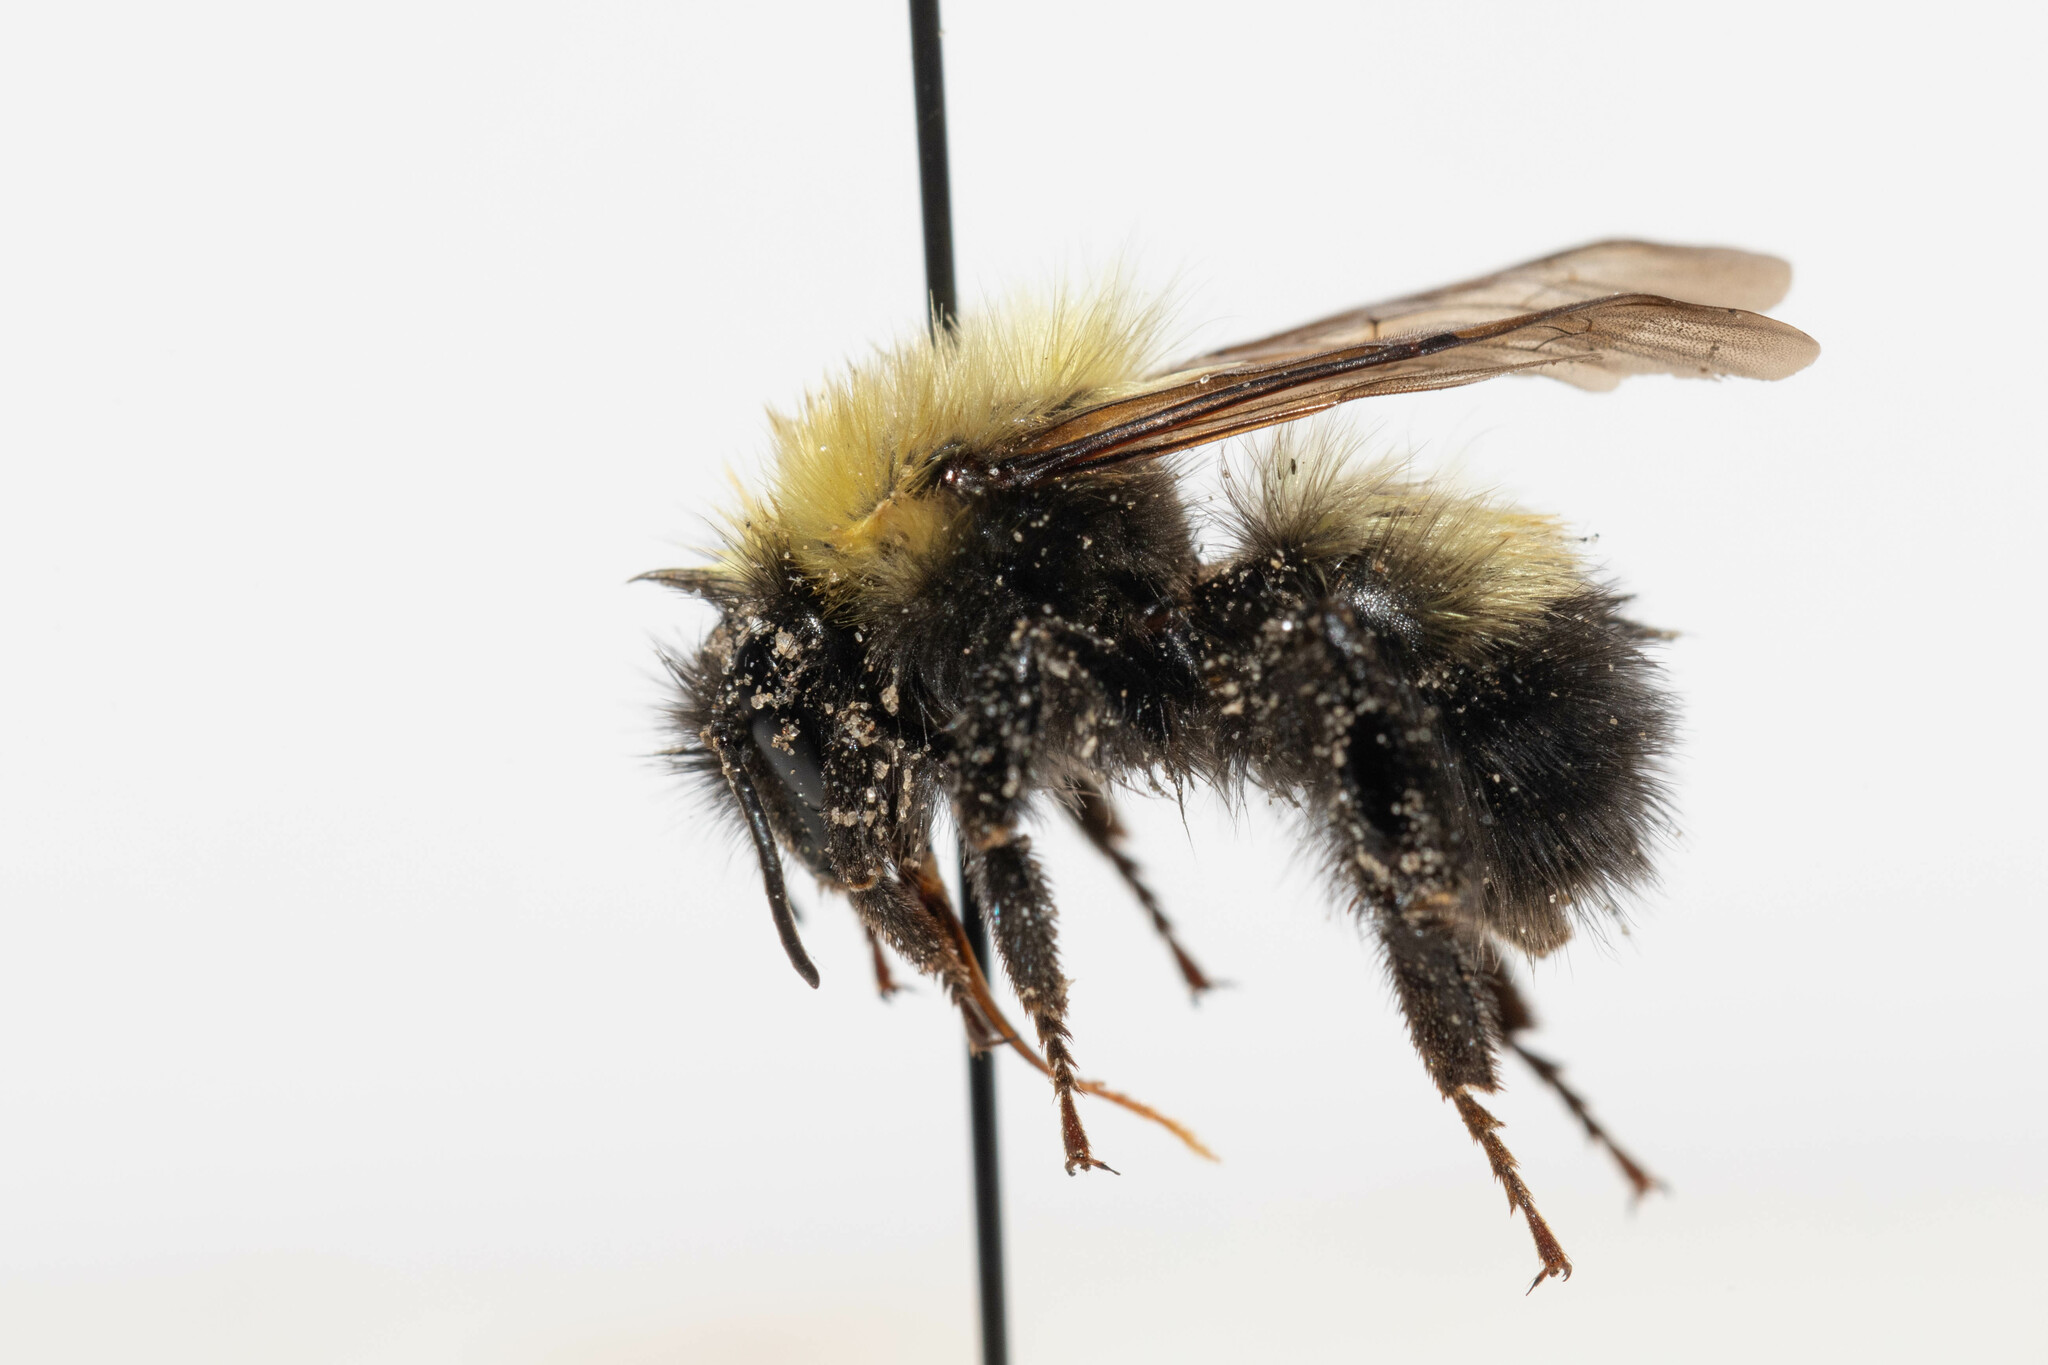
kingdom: Animalia
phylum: Arthropoda
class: Insecta
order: Hymenoptera
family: Apidae
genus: Bombus
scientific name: Bombus perplexus
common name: Confusing bumble bee
